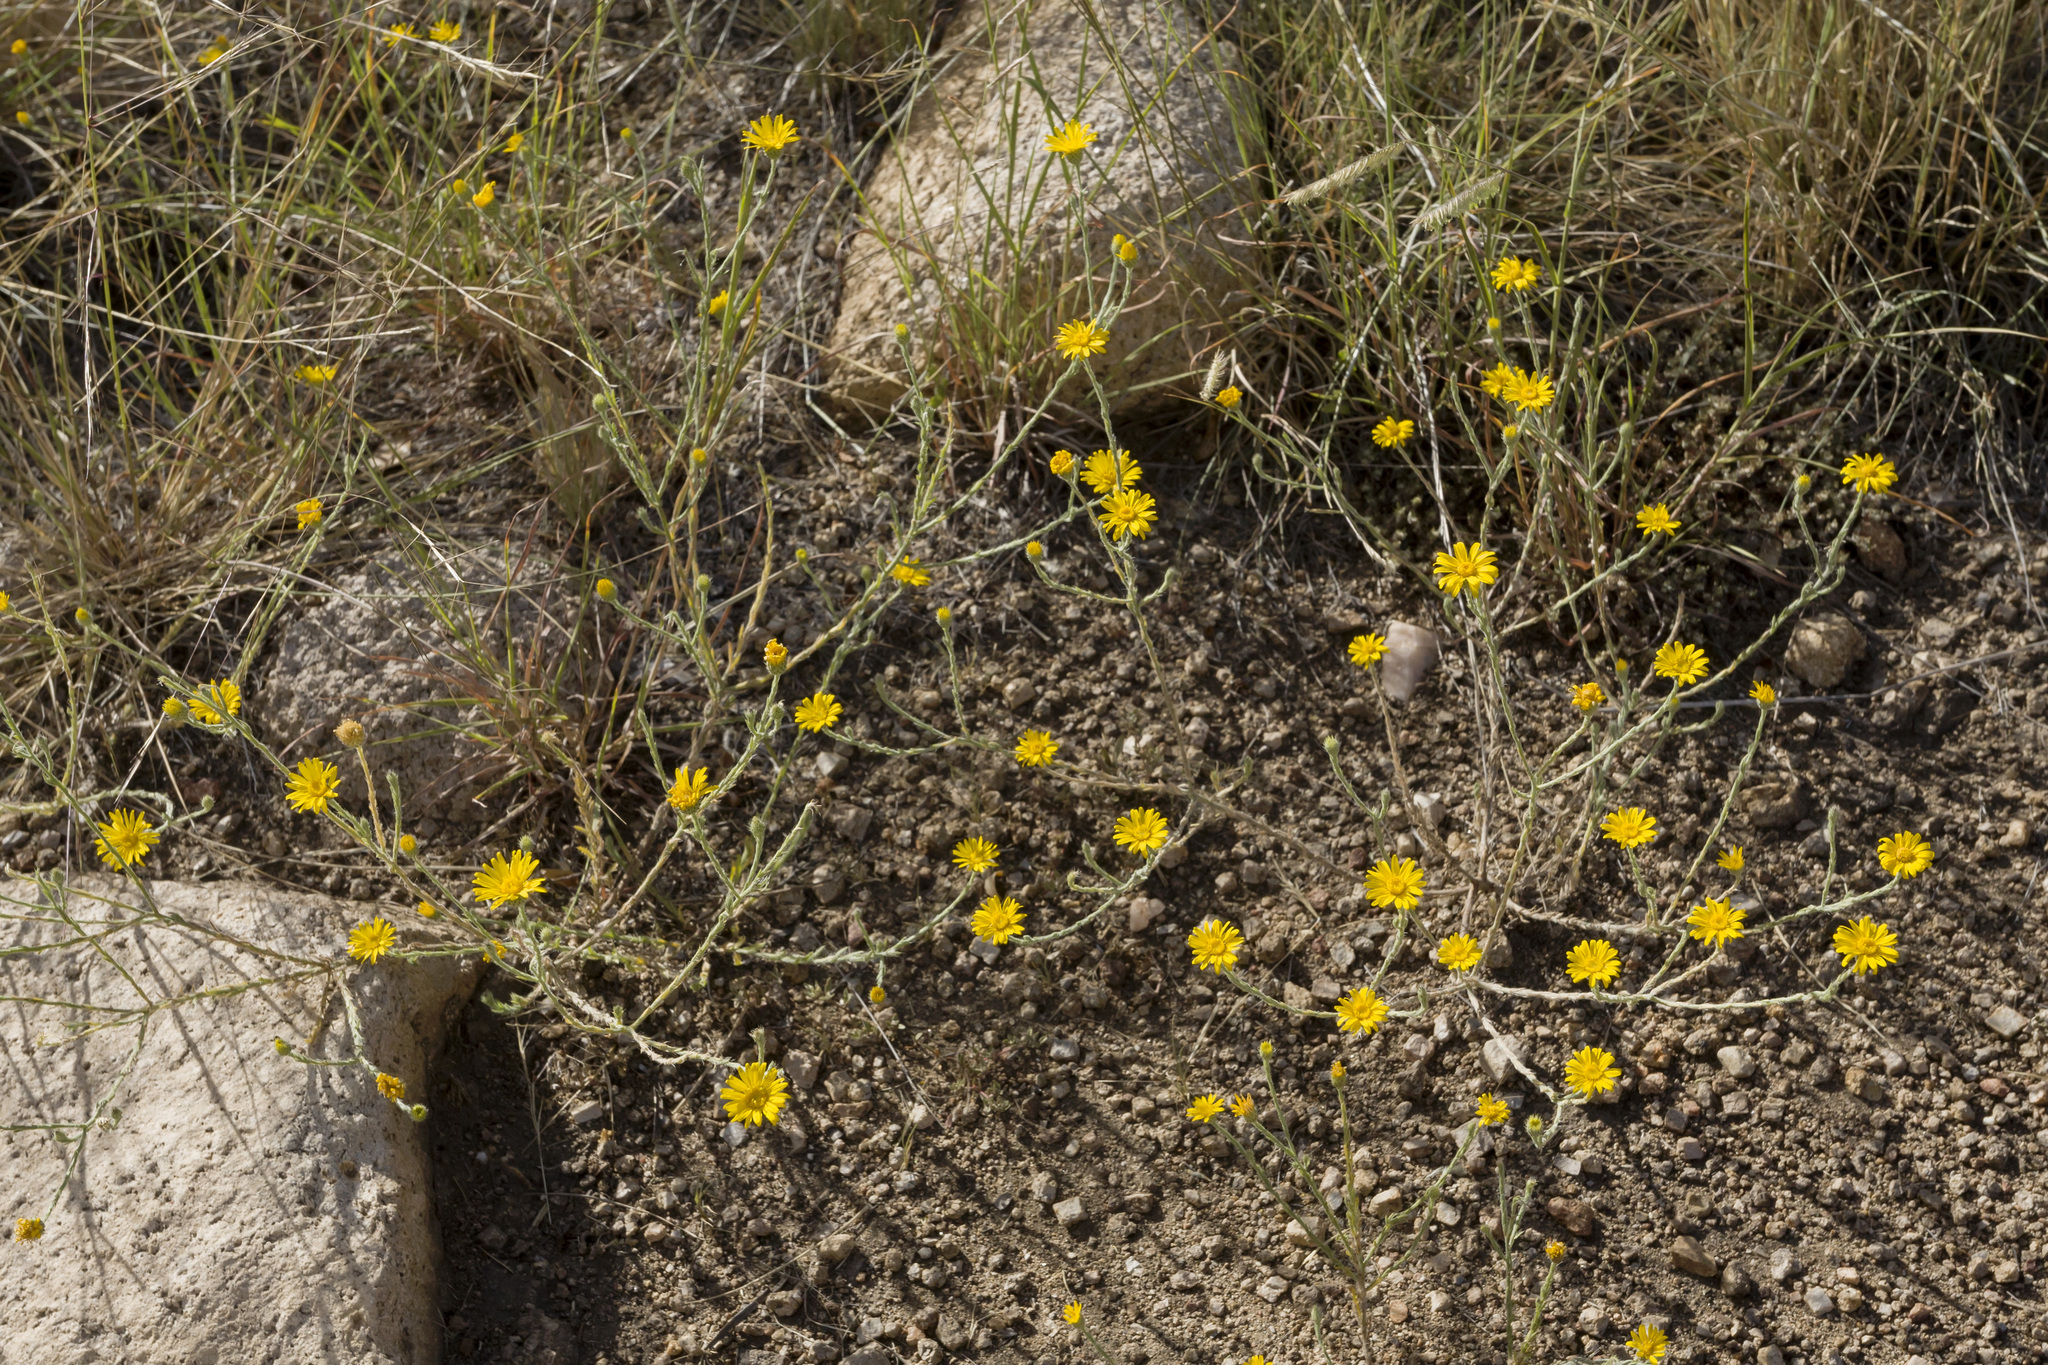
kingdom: Plantae
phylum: Tracheophyta
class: Magnoliopsida
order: Asterales
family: Asteraceae
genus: Xanthisma
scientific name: Xanthisma gracile
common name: Slender goldenweed
